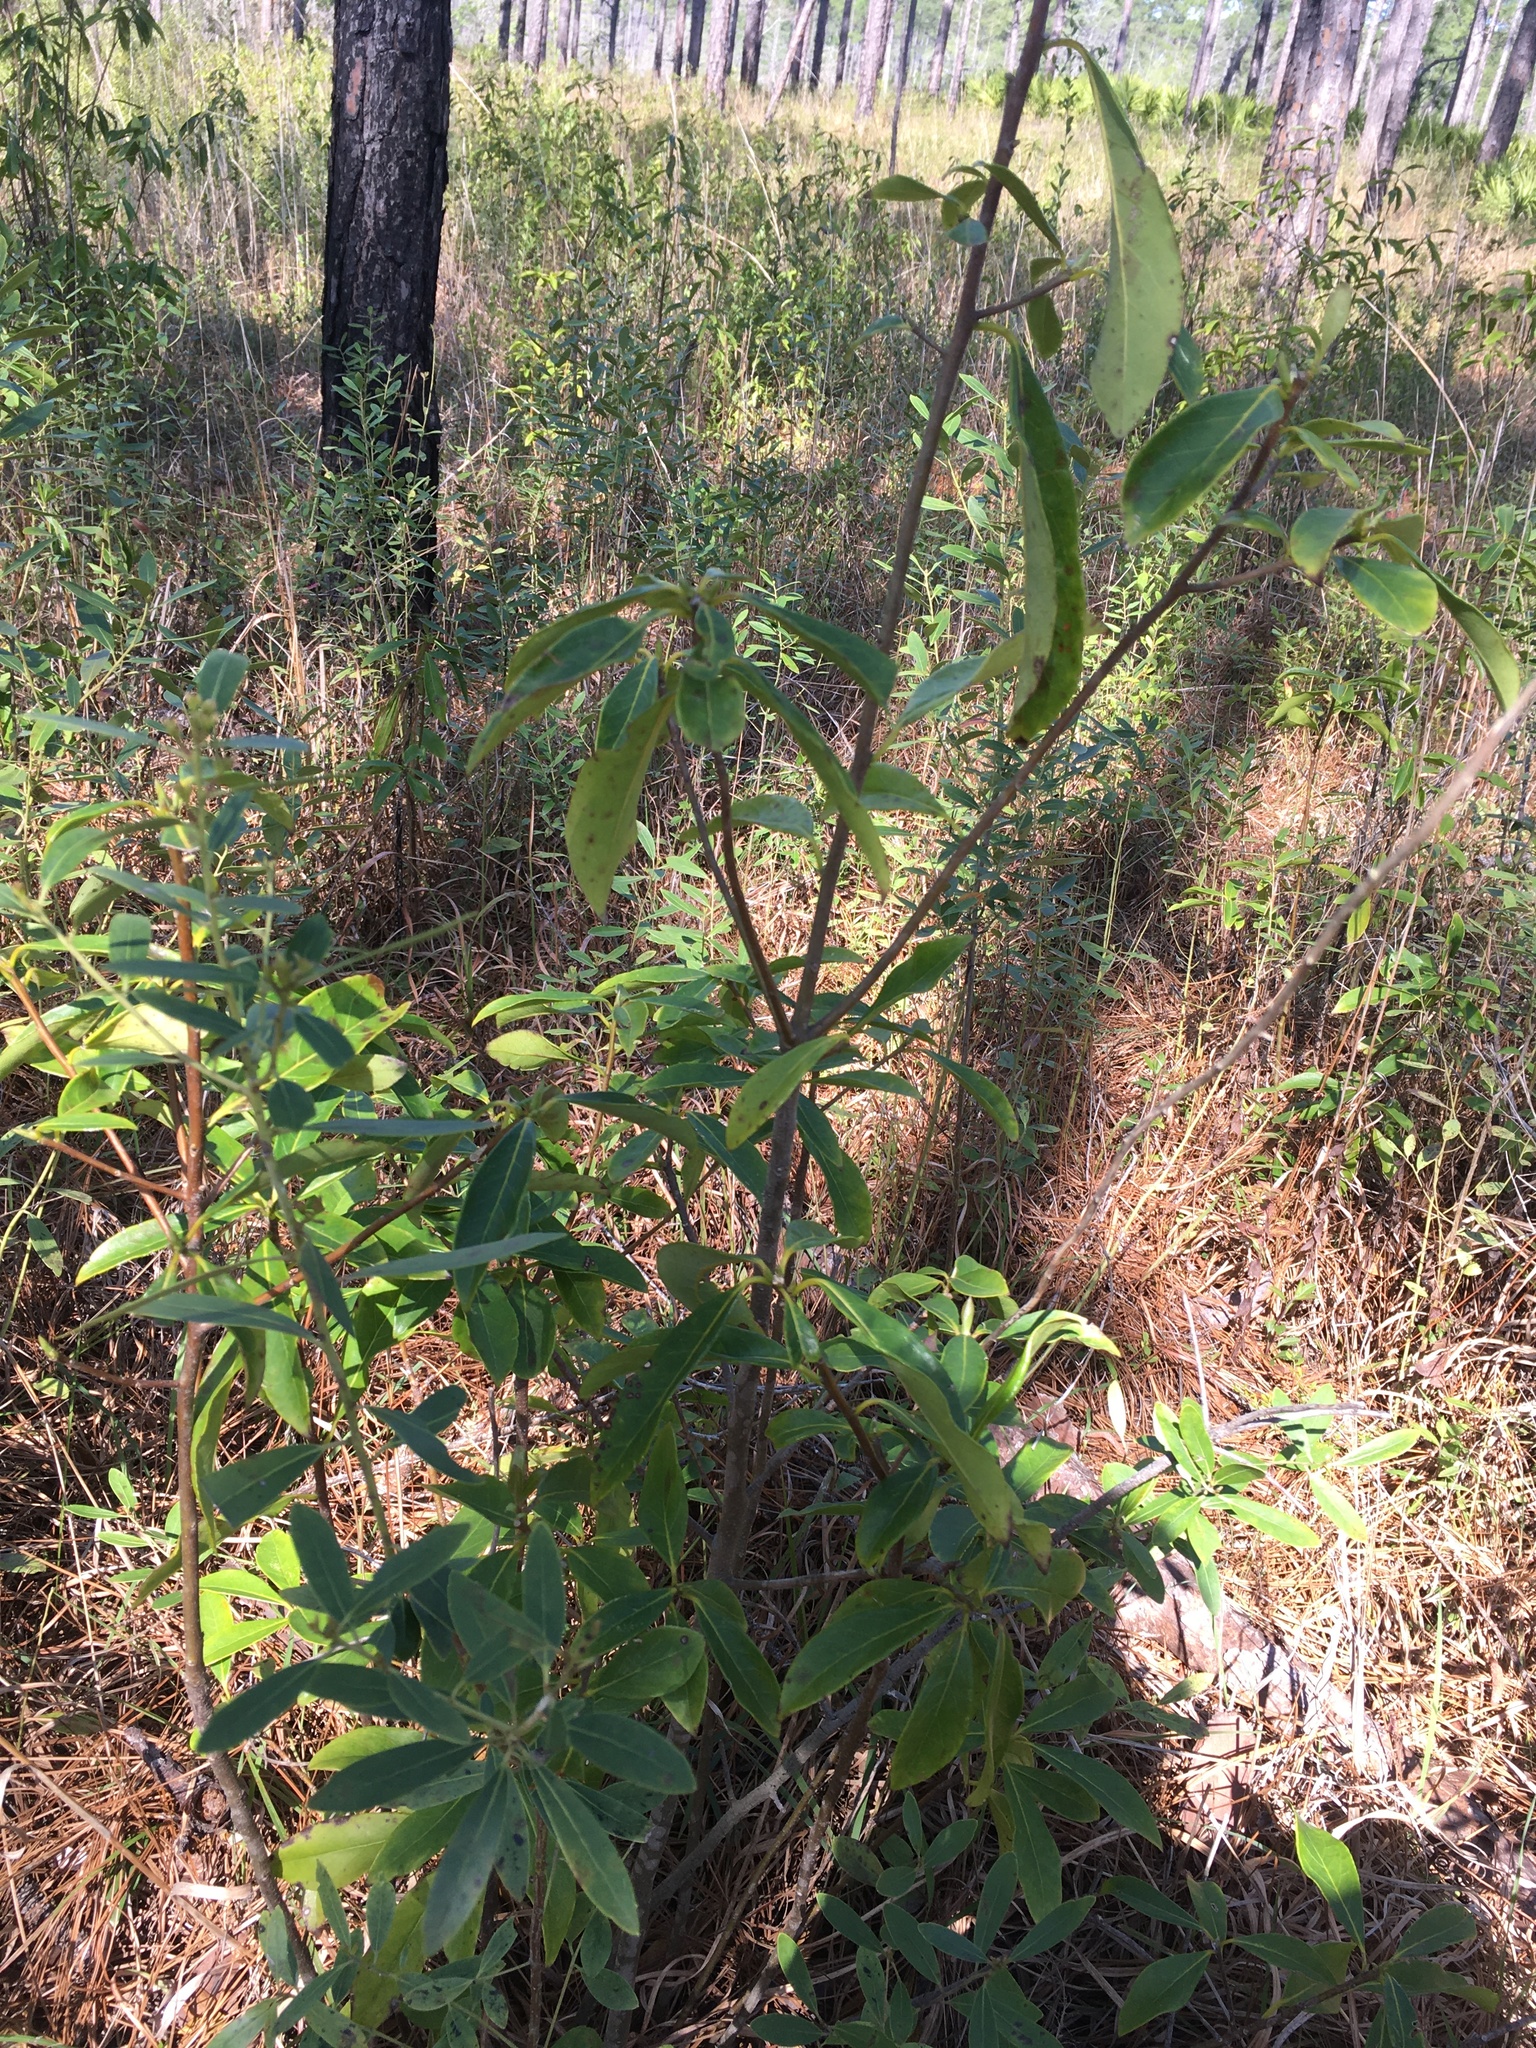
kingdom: Plantae
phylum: Tracheophyta
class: Magnoliopsida
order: Ericales
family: Symplocaceae
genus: Symplocos
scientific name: Symplocos tinctoria
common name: Horse-sugar
